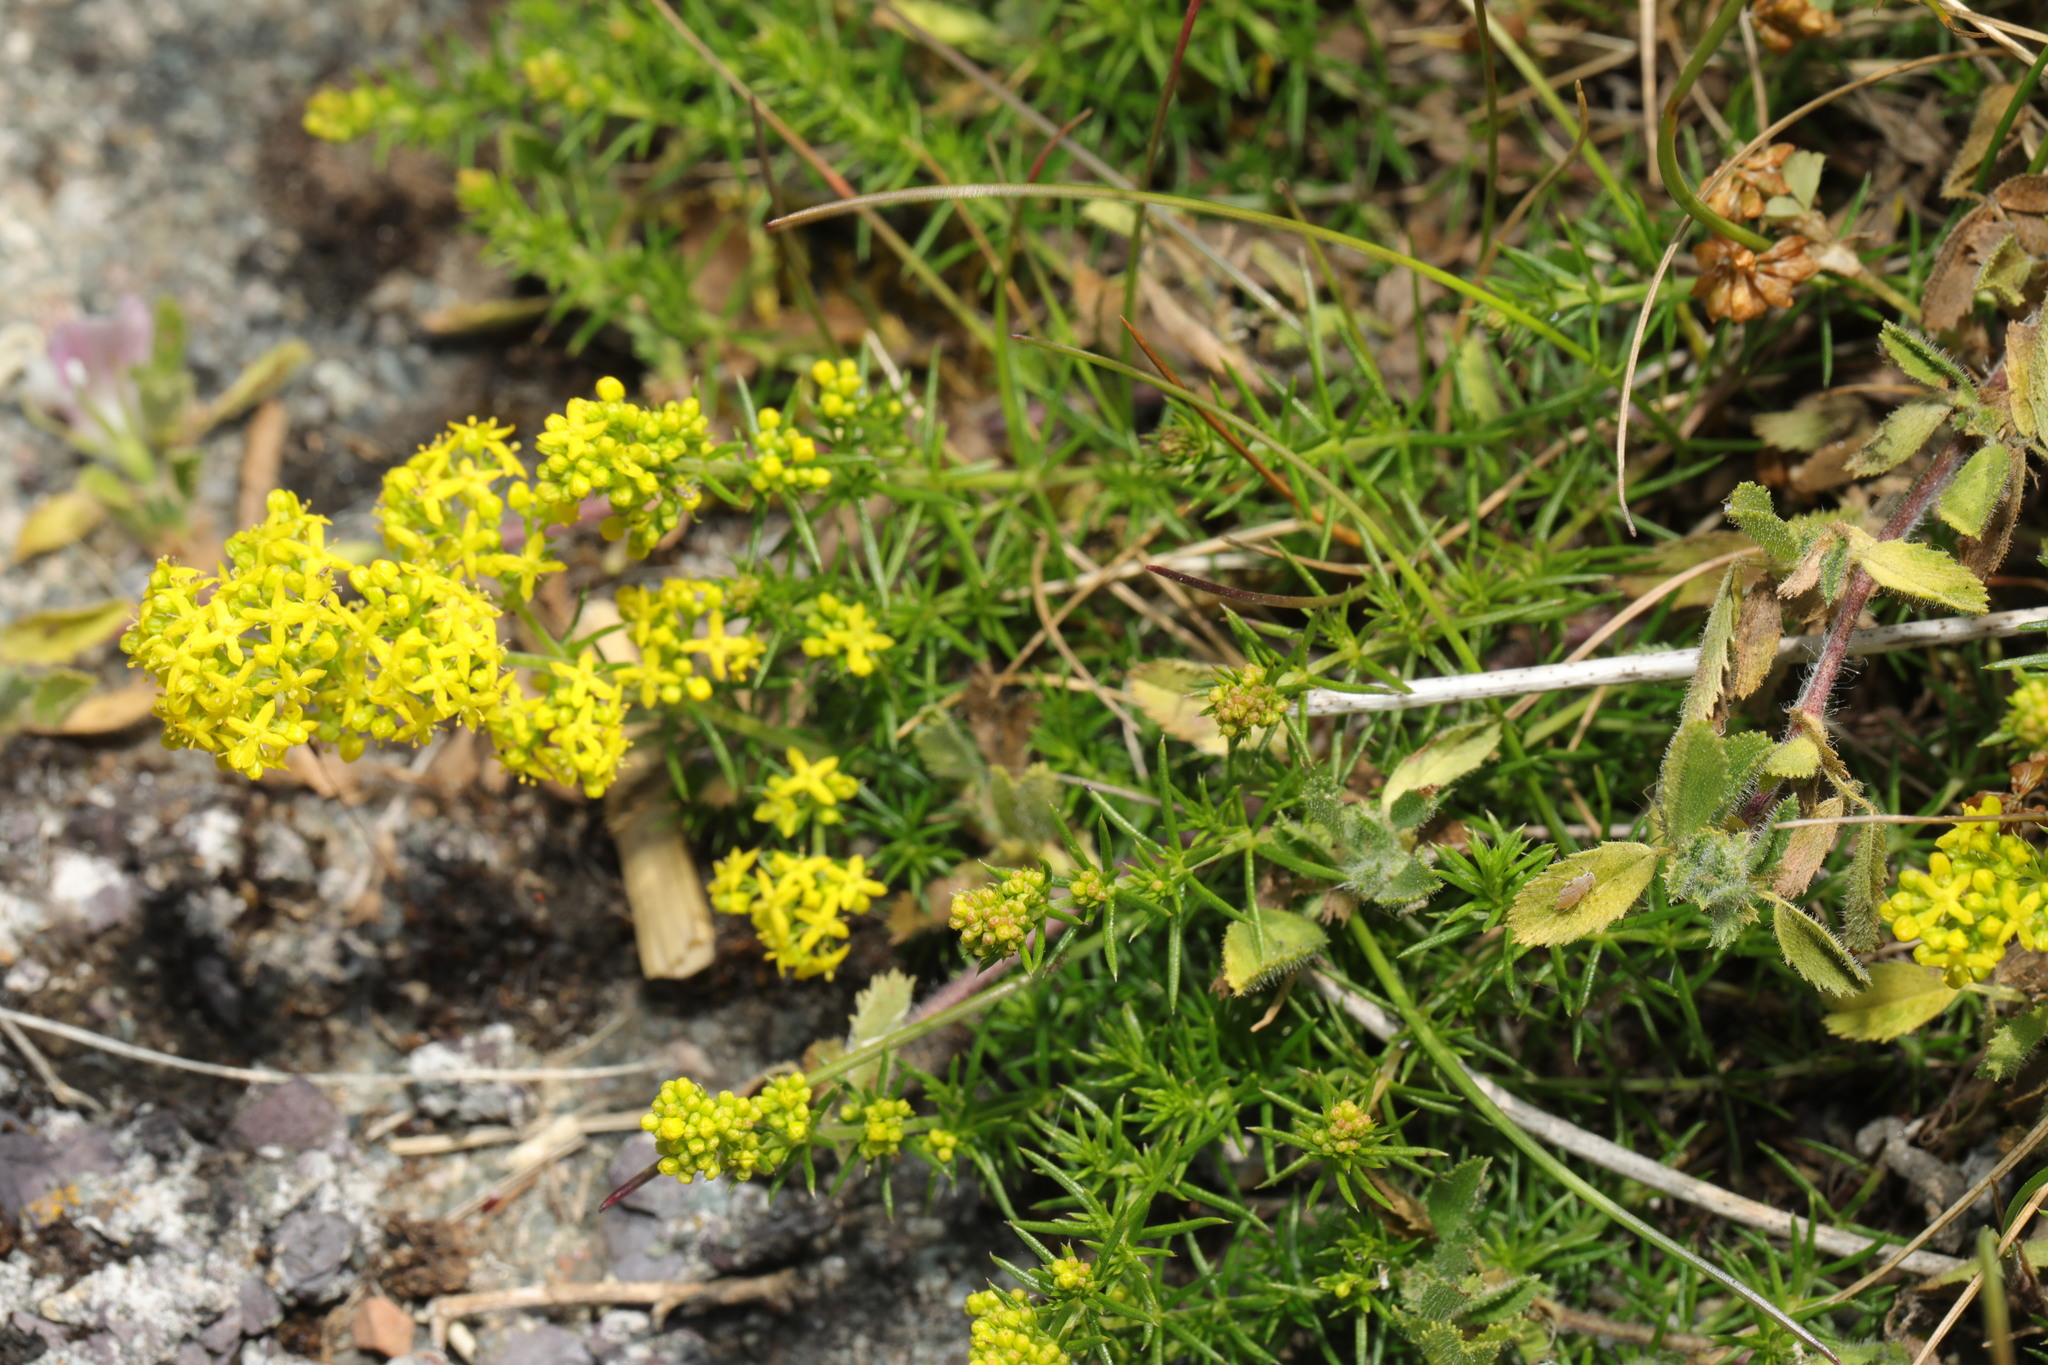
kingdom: Plantae
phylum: Tracheophyta
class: Magnoliopsida
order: Gentianales
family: Rubiaceae
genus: Galium
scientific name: Galium verum
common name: Lady's bedstraw
